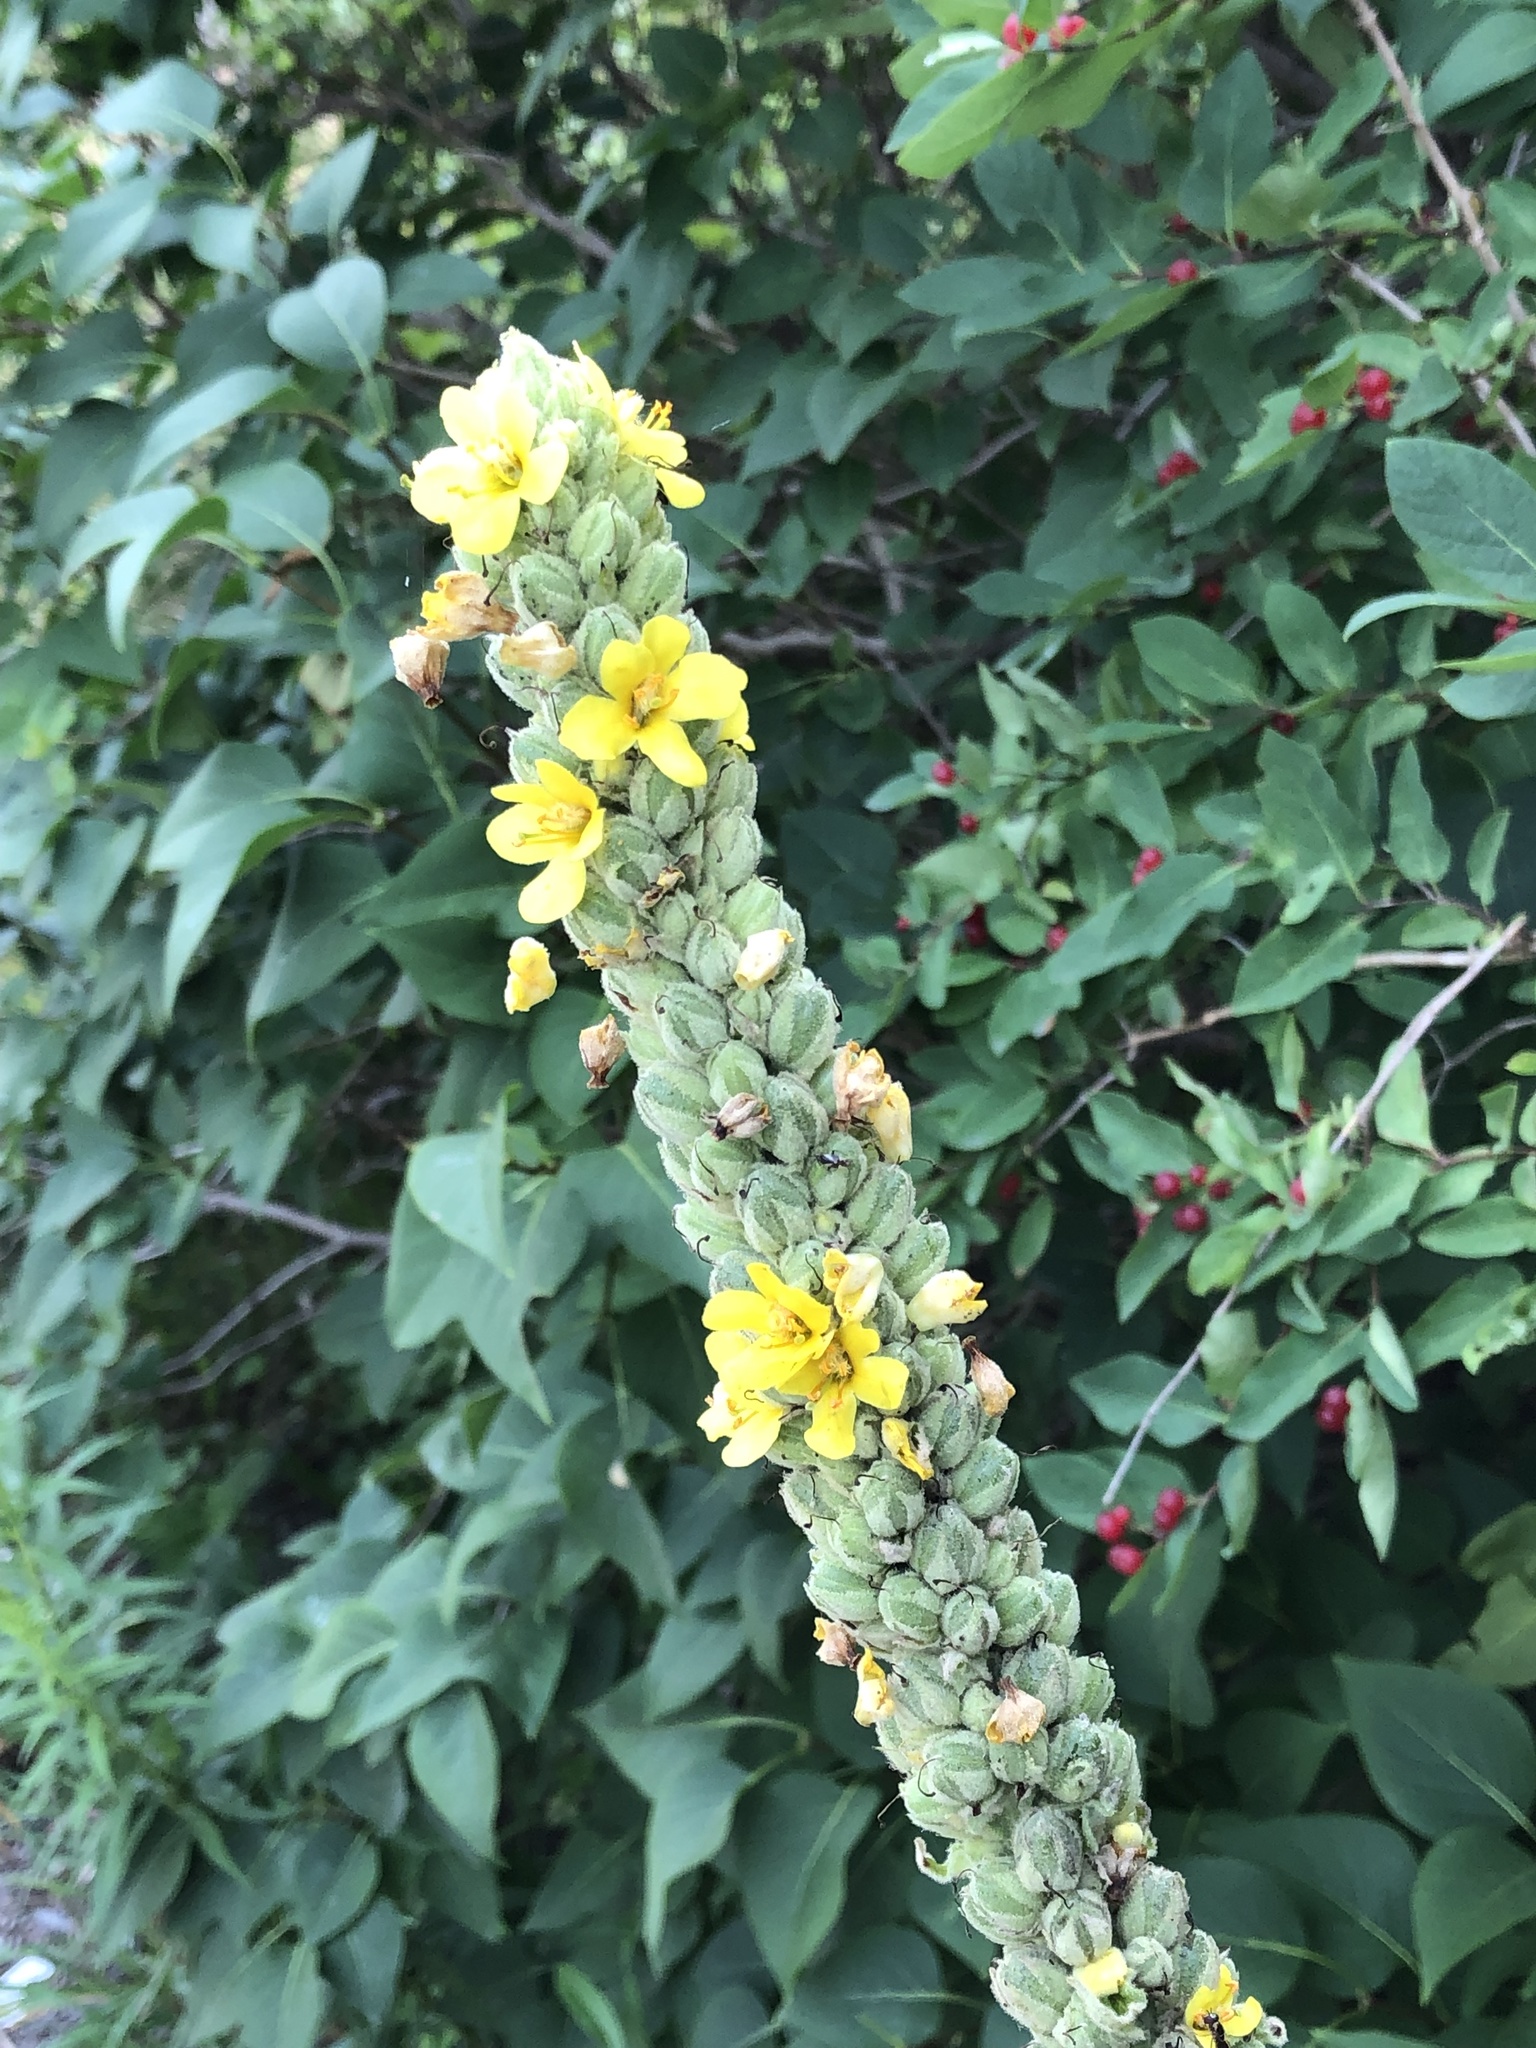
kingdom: Plantae
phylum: Tracheophyta
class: Magnoliopsida
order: Lamiales
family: Scrophulariaceae
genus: Verbascum
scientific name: Verbascum thapsus
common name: Common mullein
